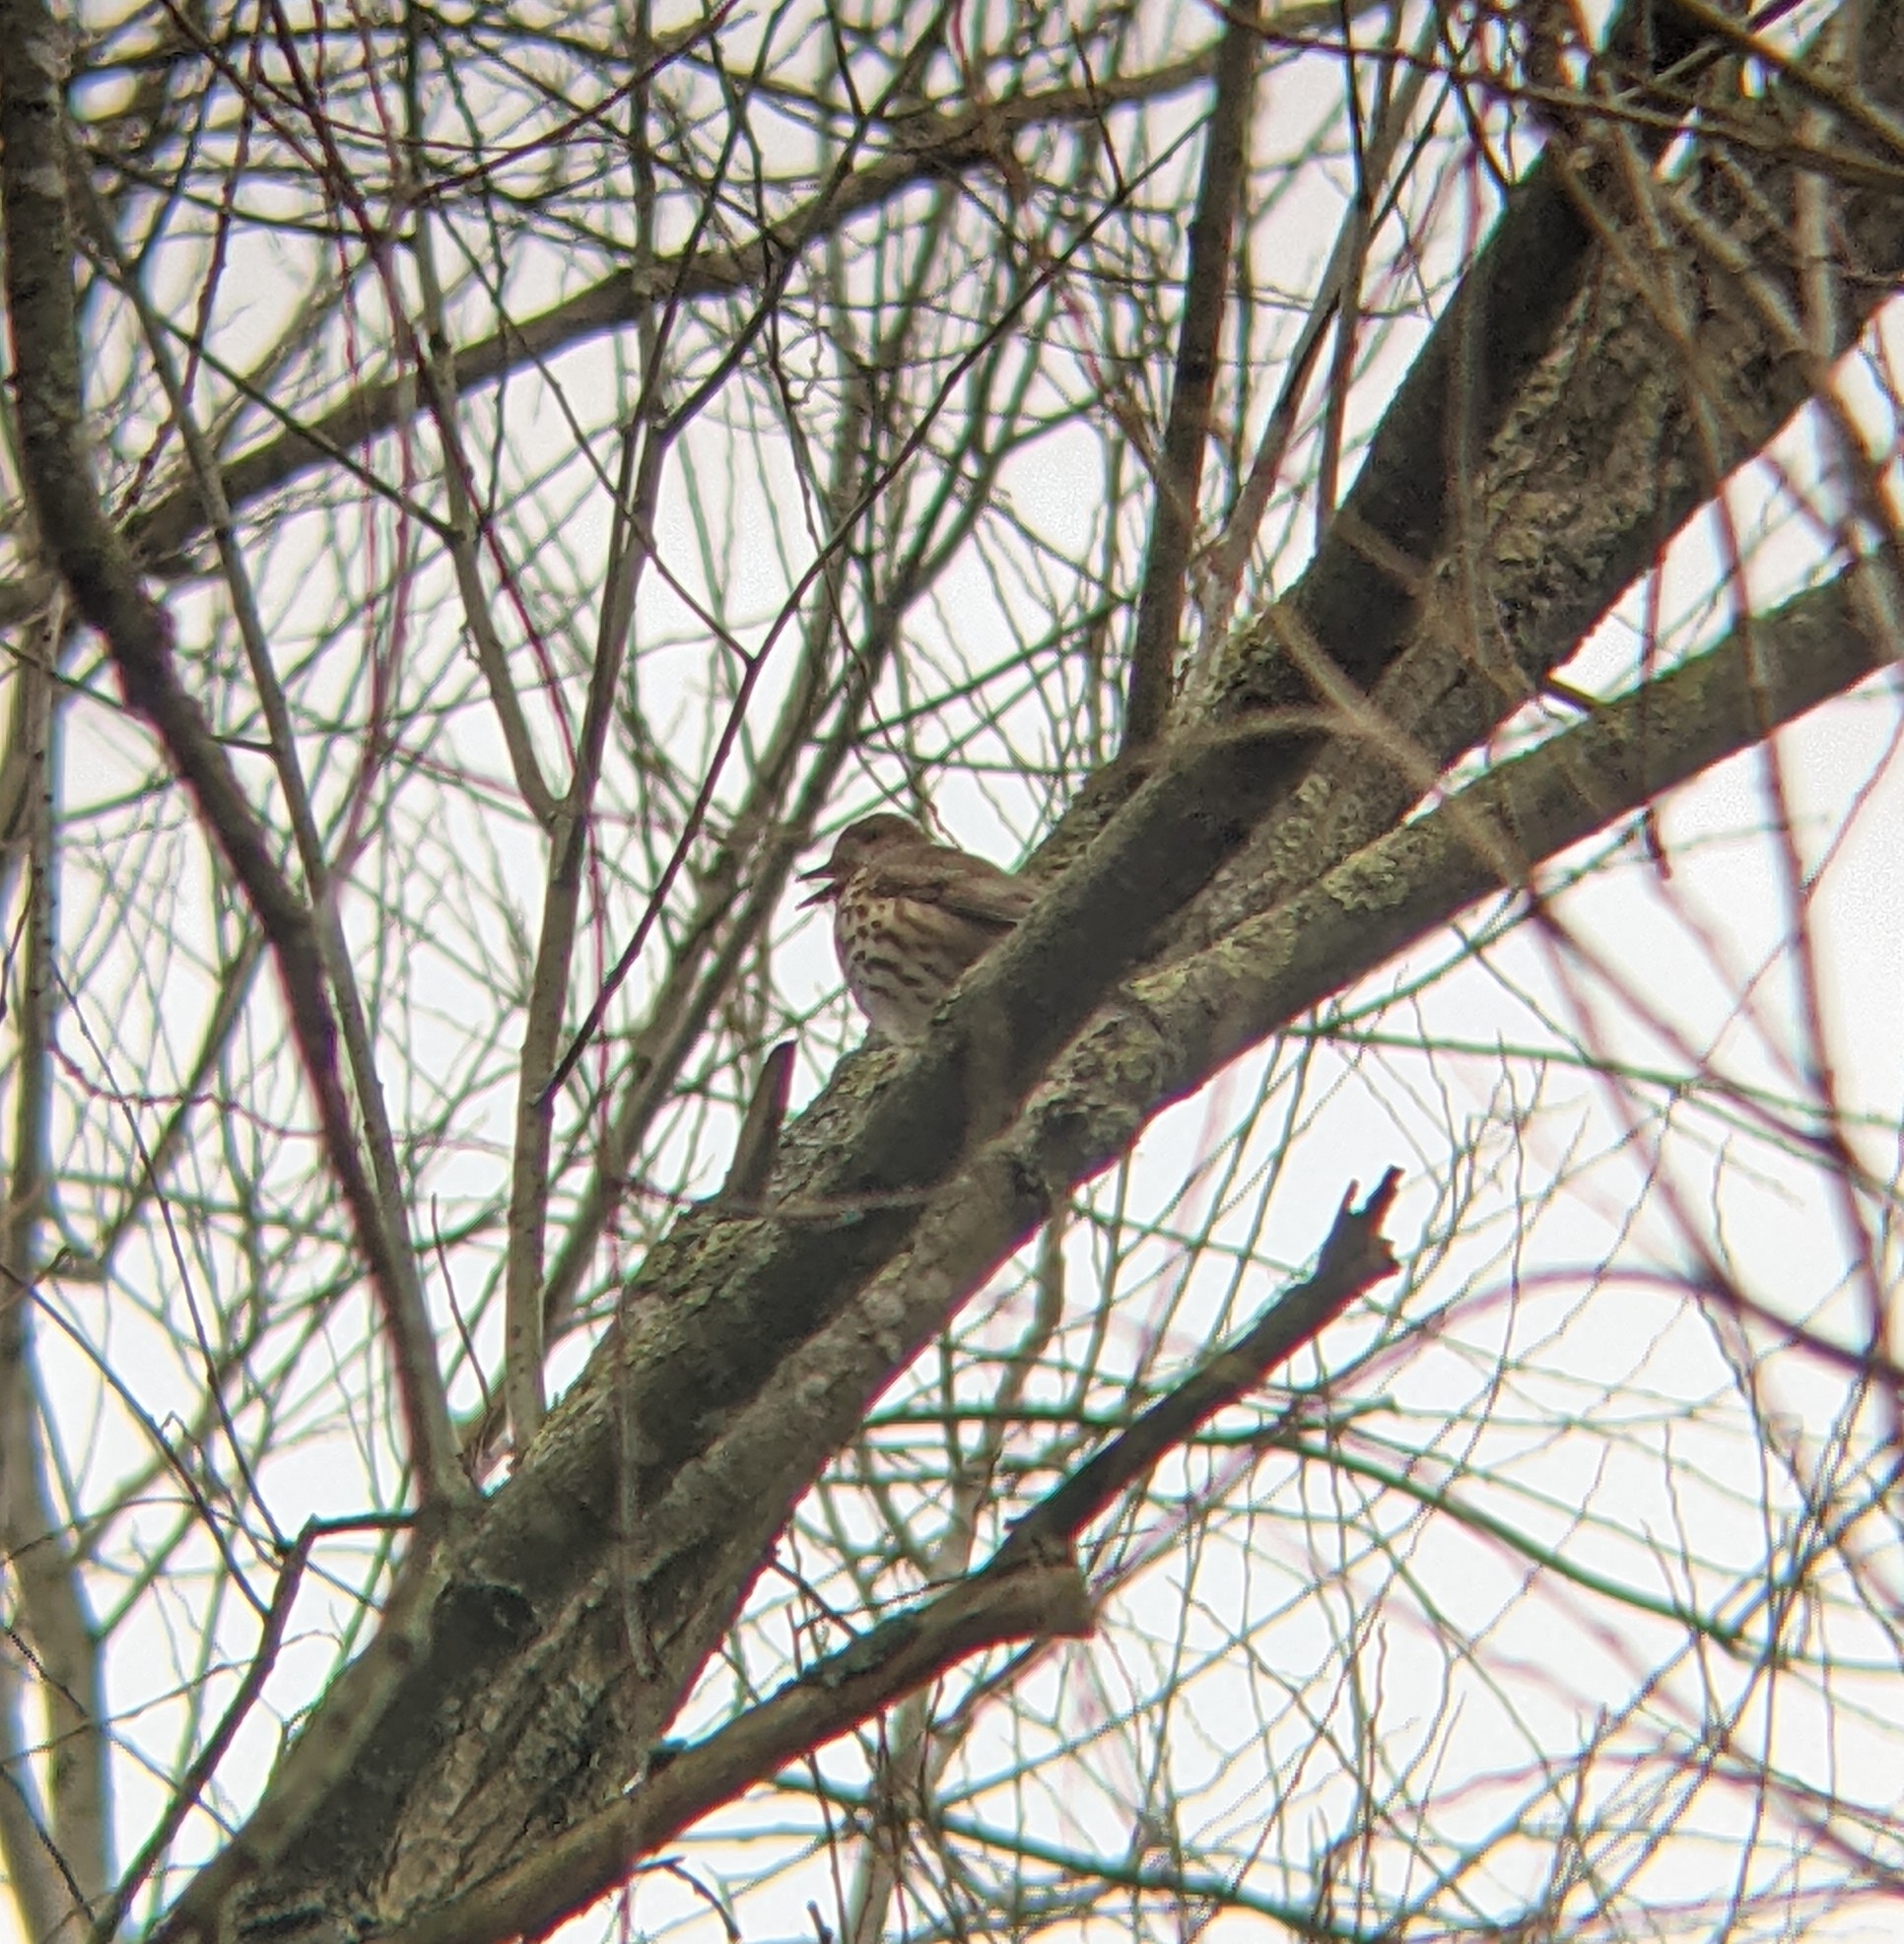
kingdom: Animalia
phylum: Chordata
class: Aves
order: Passeriformes
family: Turdidae
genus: Turdus
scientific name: Turdus philomelos
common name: Song thrush
